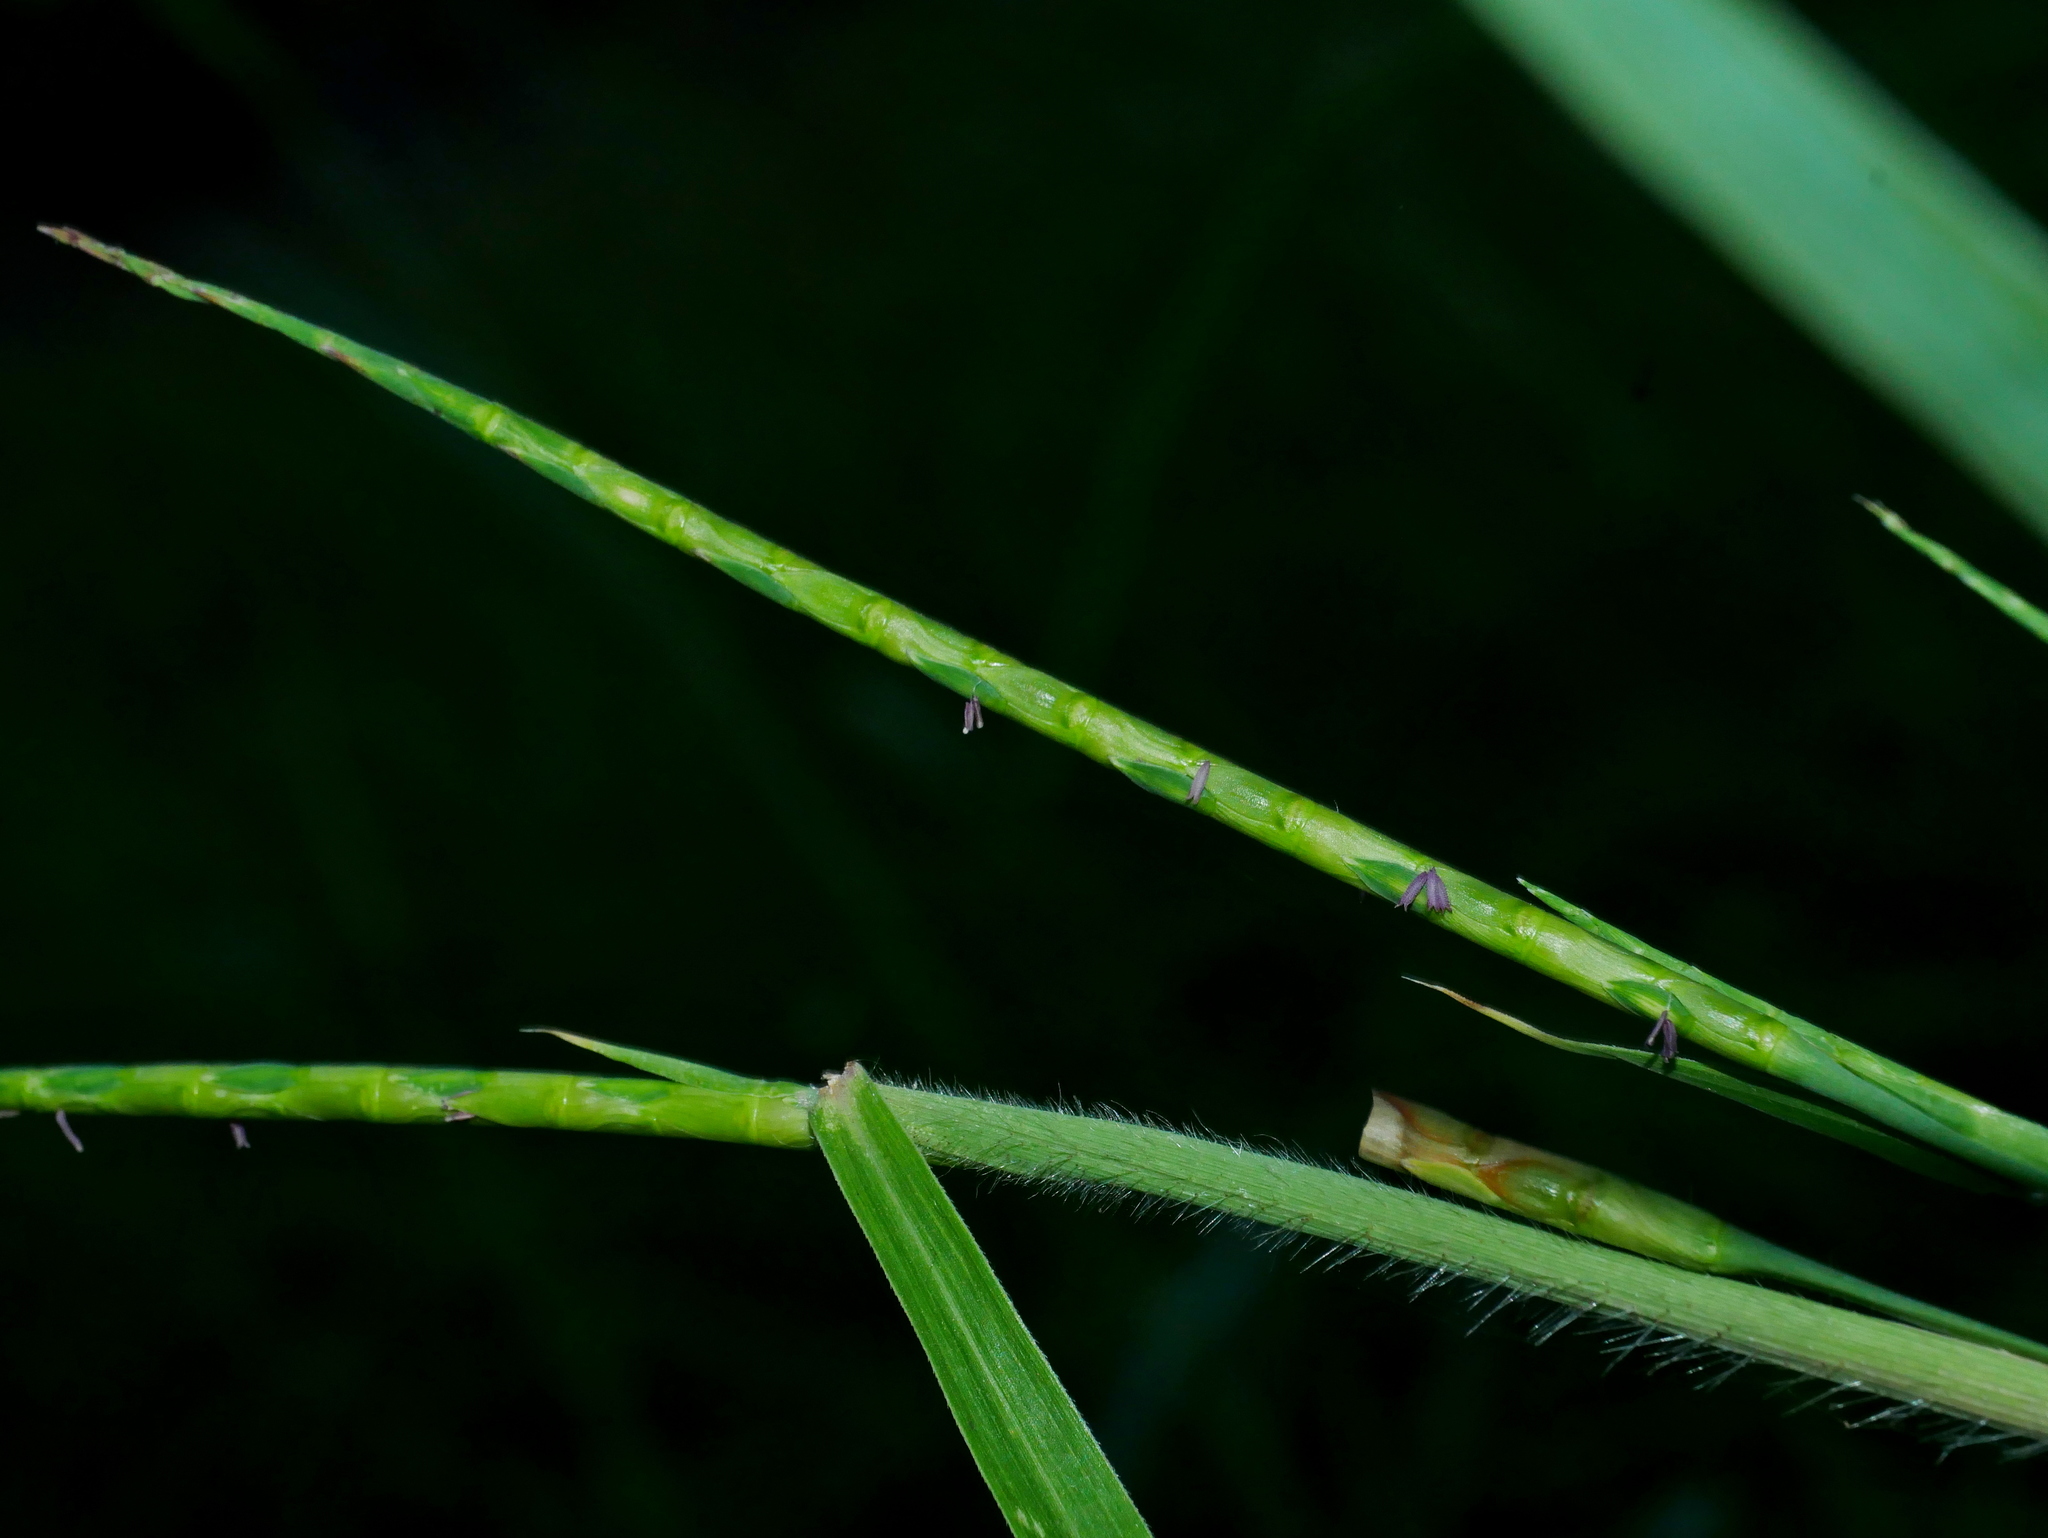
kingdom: Plantae
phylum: Tracheophyta
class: Liliopsida
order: Poales
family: Poaceae
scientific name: Poaceae
